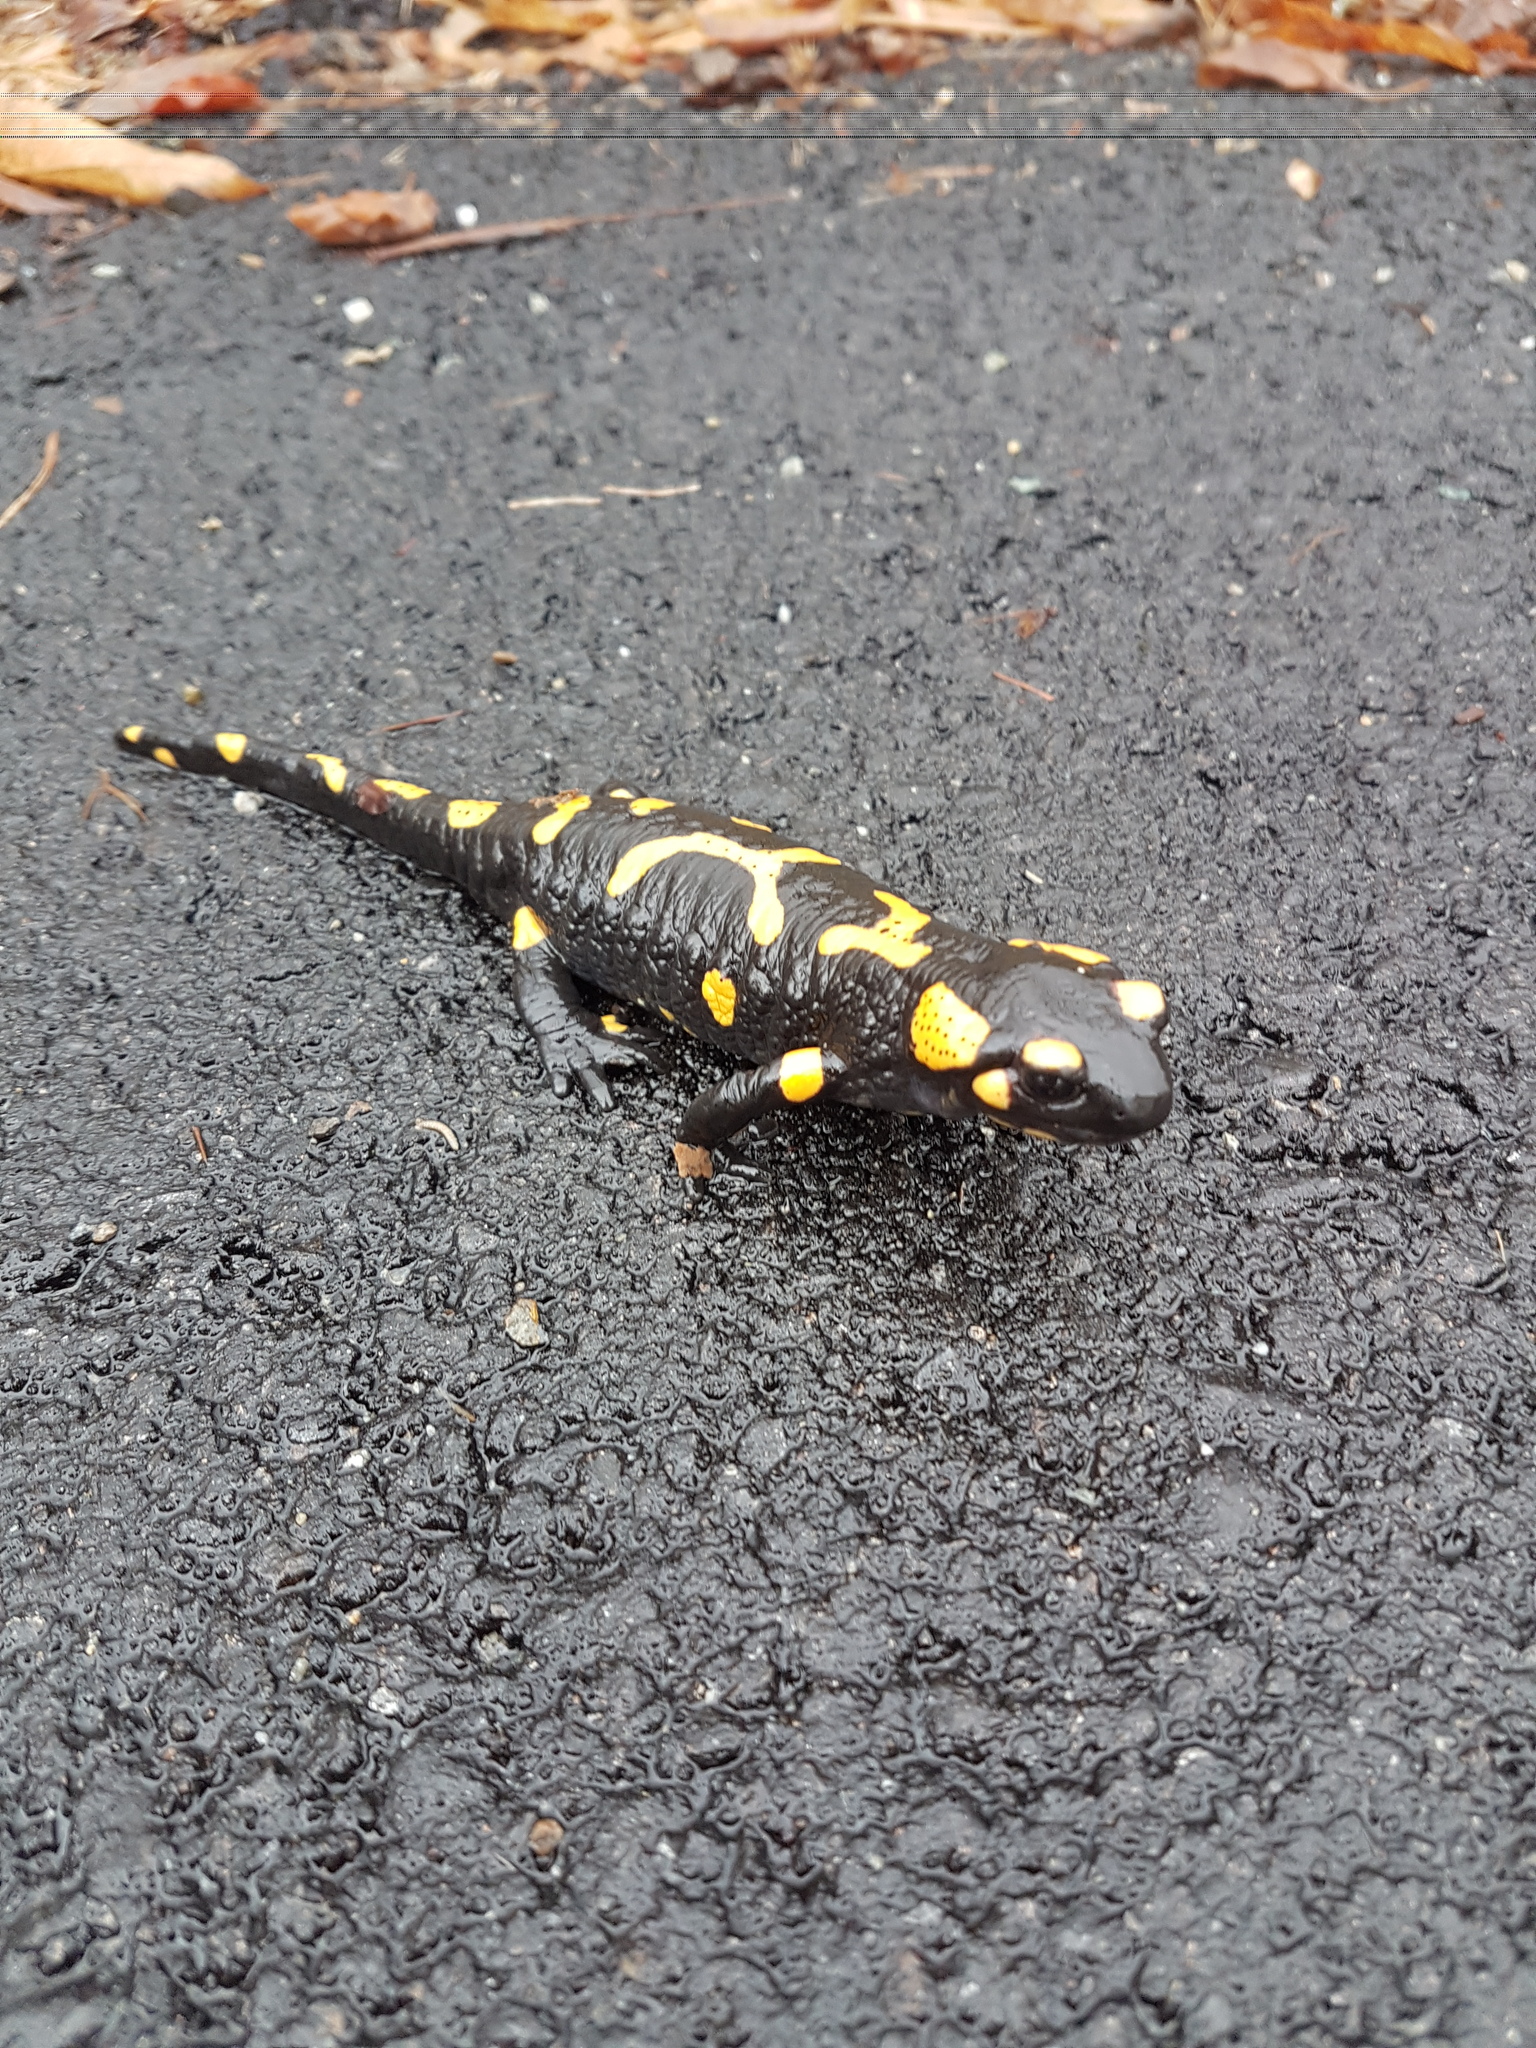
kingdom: Animalia
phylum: Chordata
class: Amphibia
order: Caudata
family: Salamandridae
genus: Salamandra
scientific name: Salamandra salamandra
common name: Fire salamander
